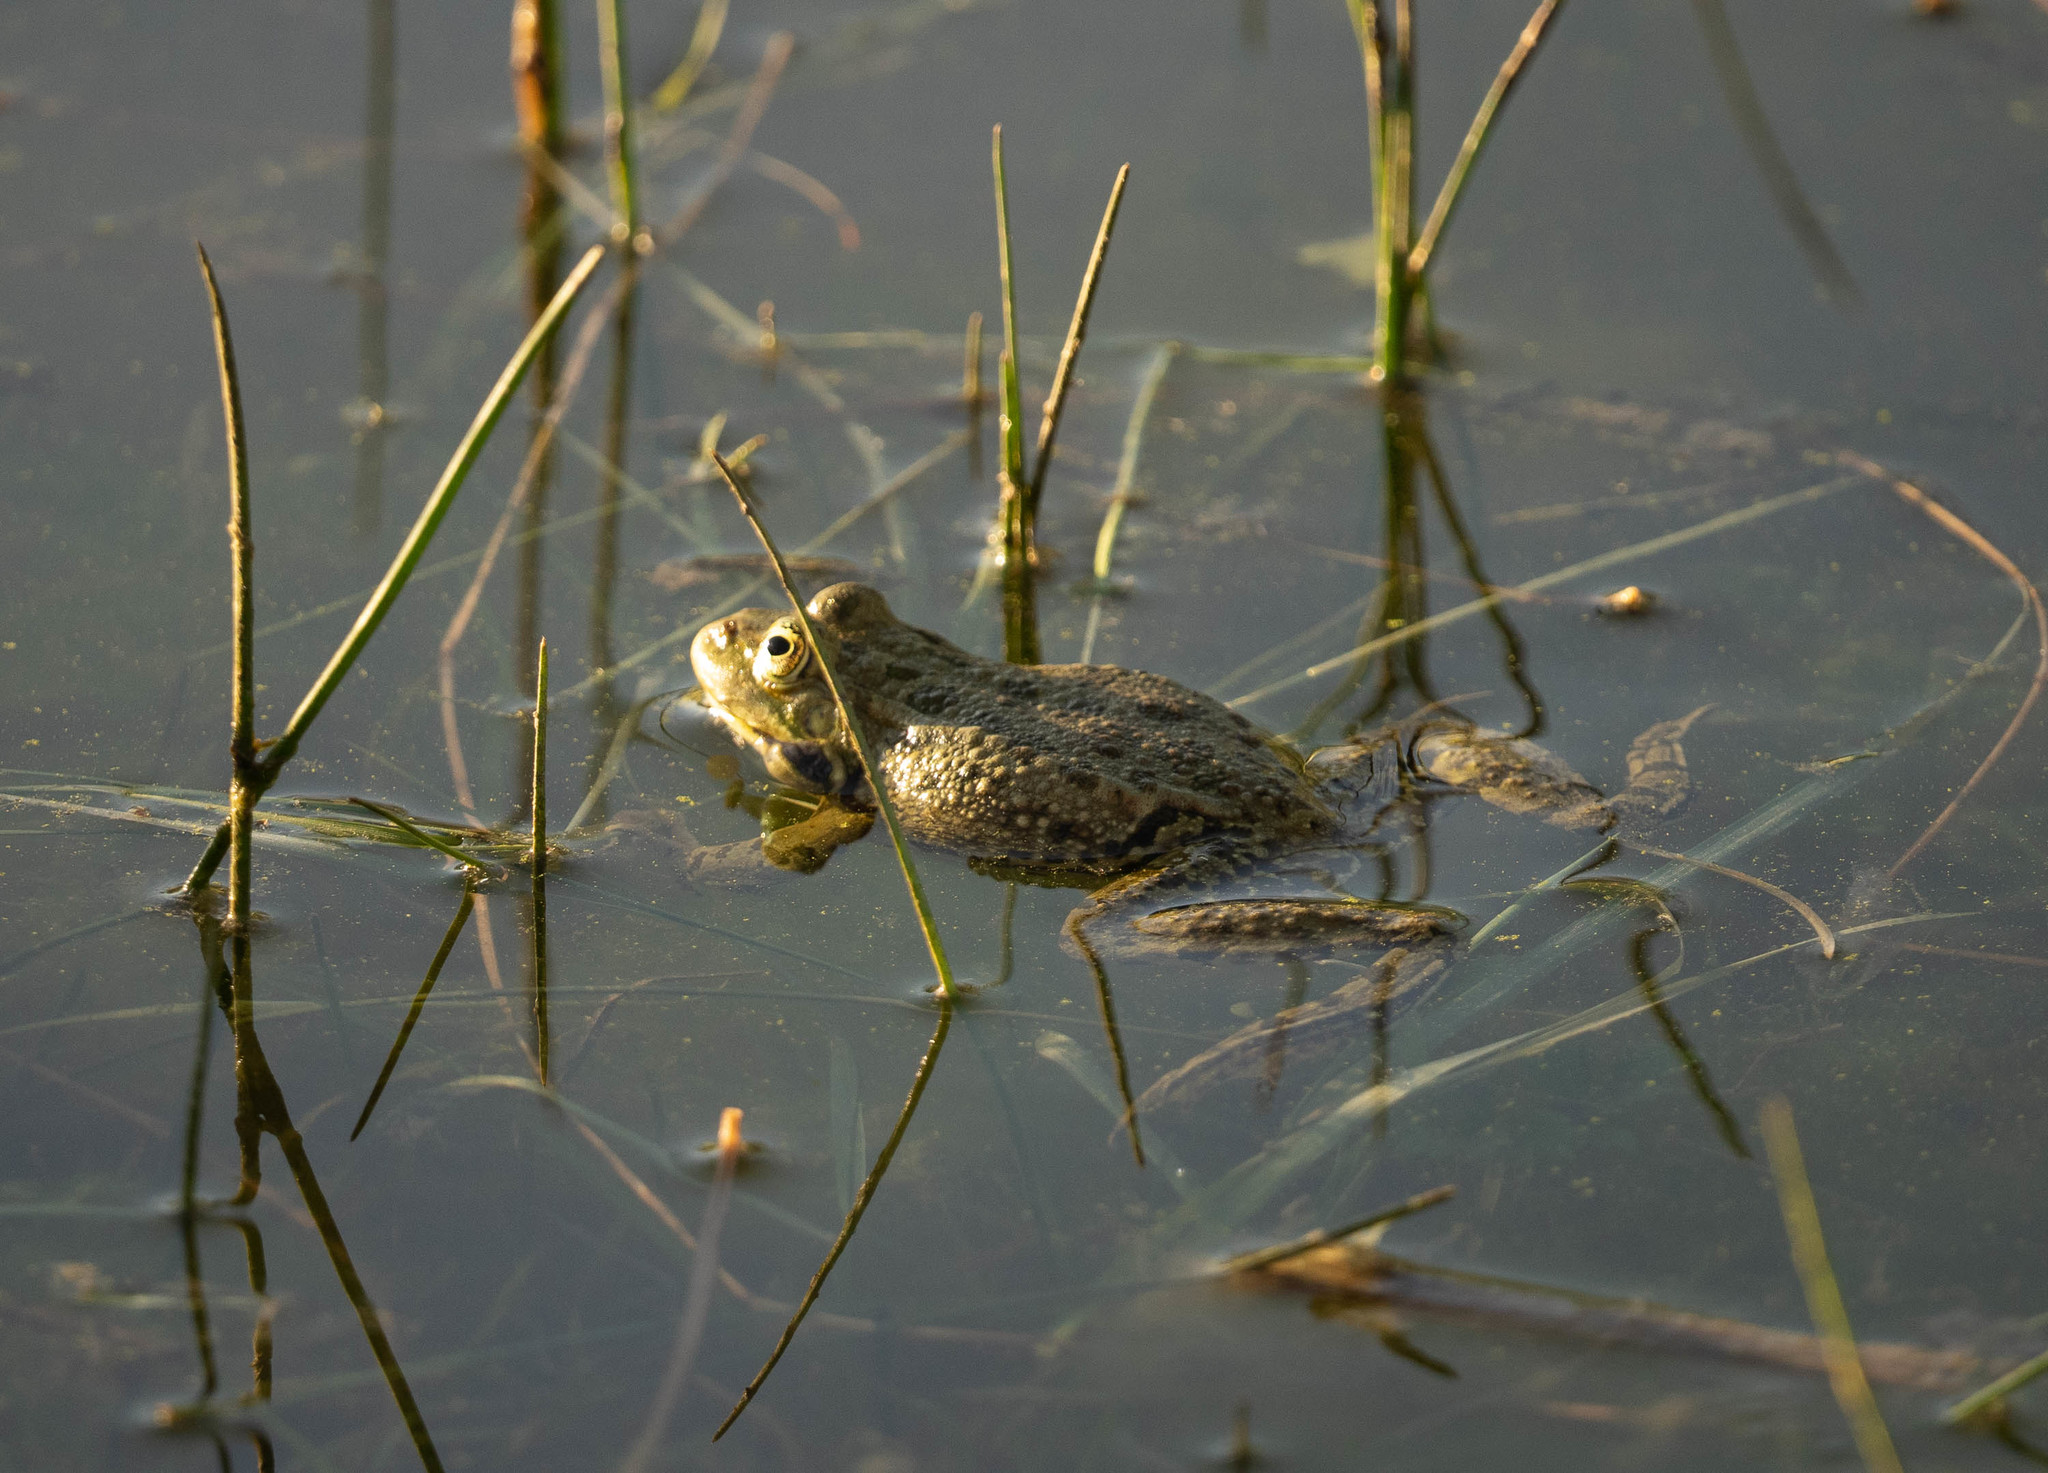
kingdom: Animalia
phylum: Chordata
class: Amphibia
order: Anura
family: Ranidae
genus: Pelophylax
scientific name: Pelophylax ridibundus
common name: Marsh frog
